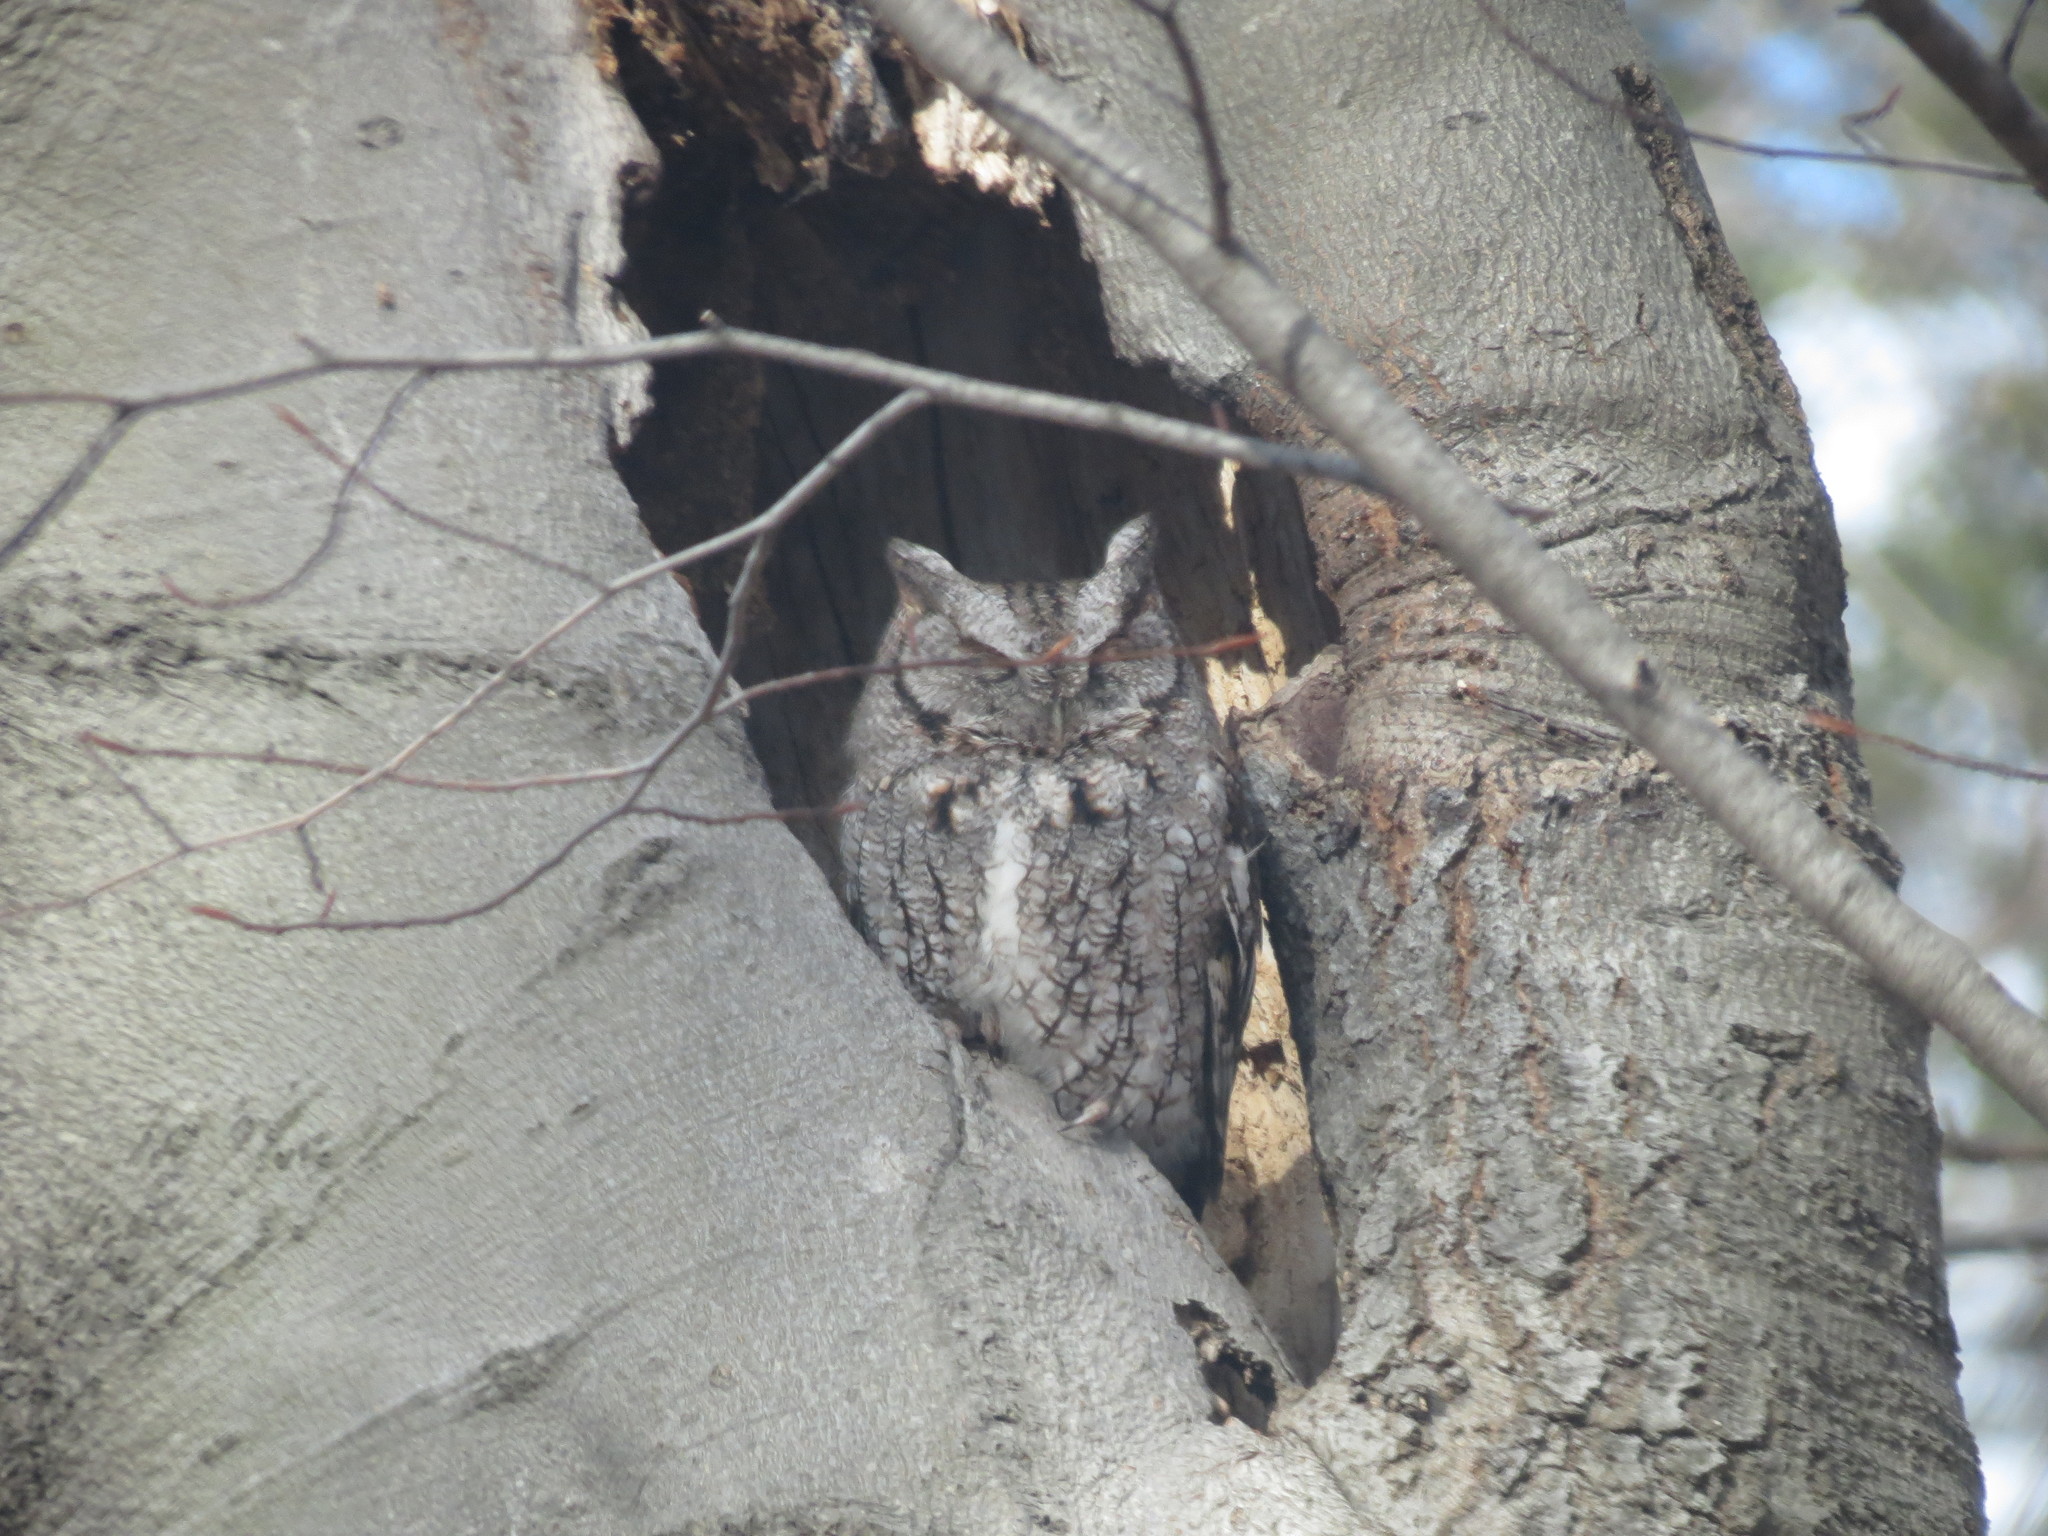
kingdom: Animalia
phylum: Chordata
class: Aves
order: Strigiformes
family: Strigidae
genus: Megascops
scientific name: Megascops asio
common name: Eastern screech-owl
